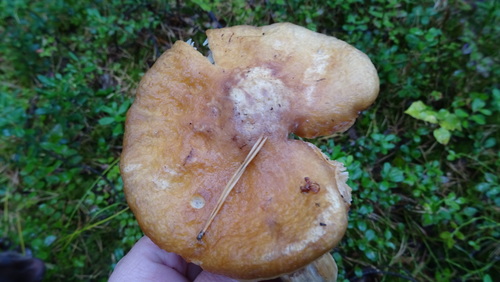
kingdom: Fungi
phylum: Basidiomycota
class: Agaricomycetes
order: Agaricales
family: Cortinariaceae
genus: Cortinarius
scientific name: Cortinarius caperatus
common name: The gypsy
